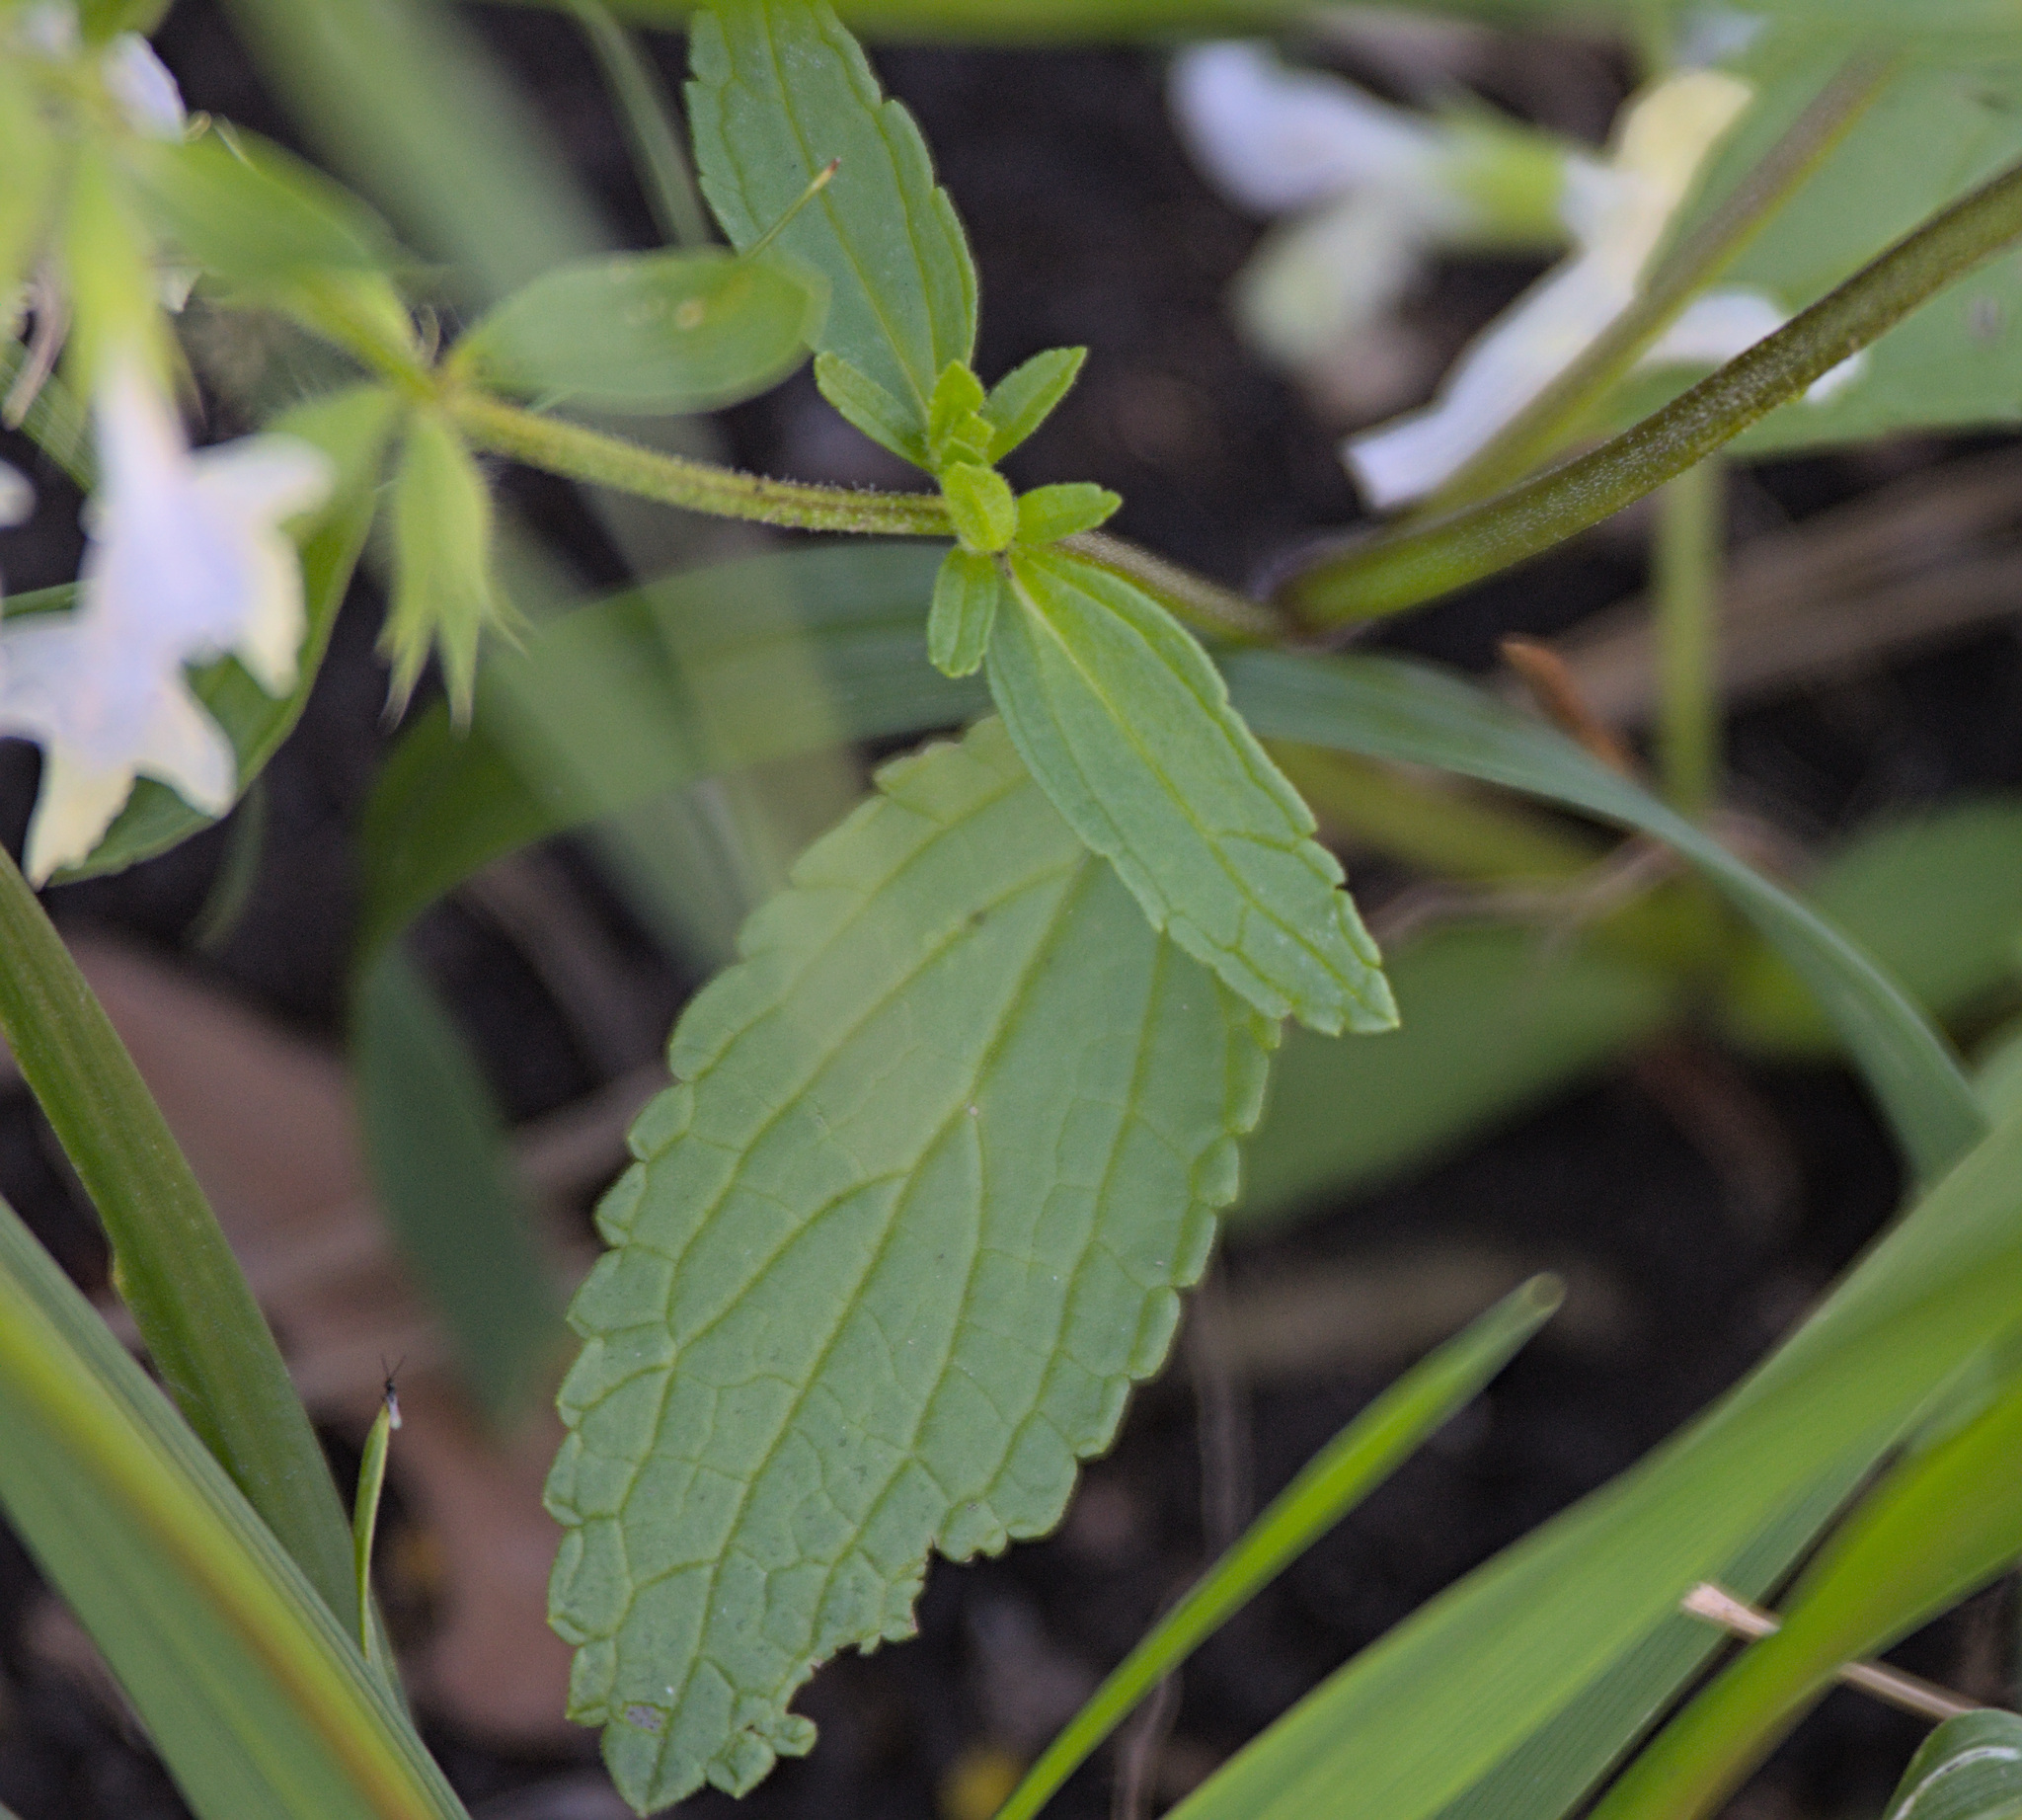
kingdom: Plantae
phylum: Tracheophyta
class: Magnoliopsida
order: Lamiales
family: Lamiaceae
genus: Stachys
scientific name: Stachys annua
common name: Annual yellow-woundwort
